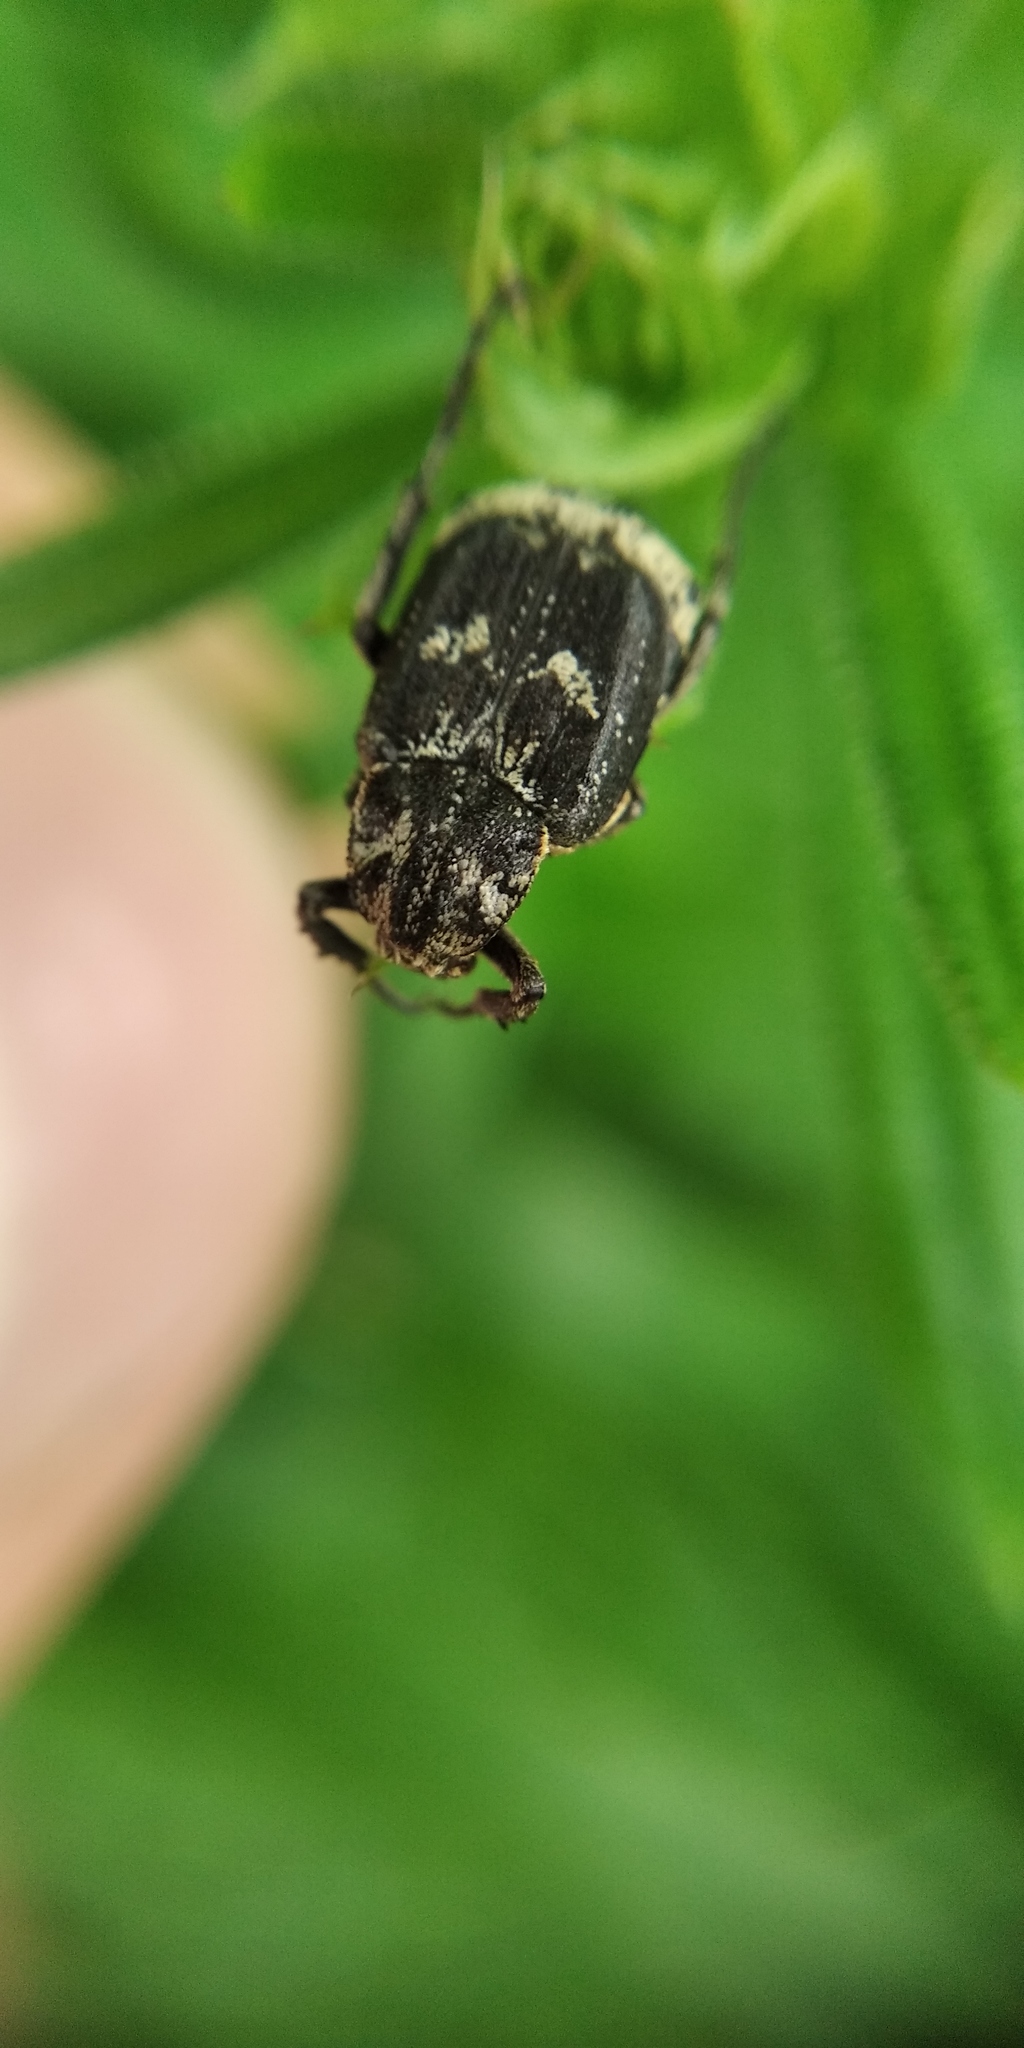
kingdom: Animalia
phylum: Arthropoda
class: Insecta
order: Coleoptera
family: Scarabaeidae
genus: Valgus
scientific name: Valgus hemipterus
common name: Bug flower chafer
